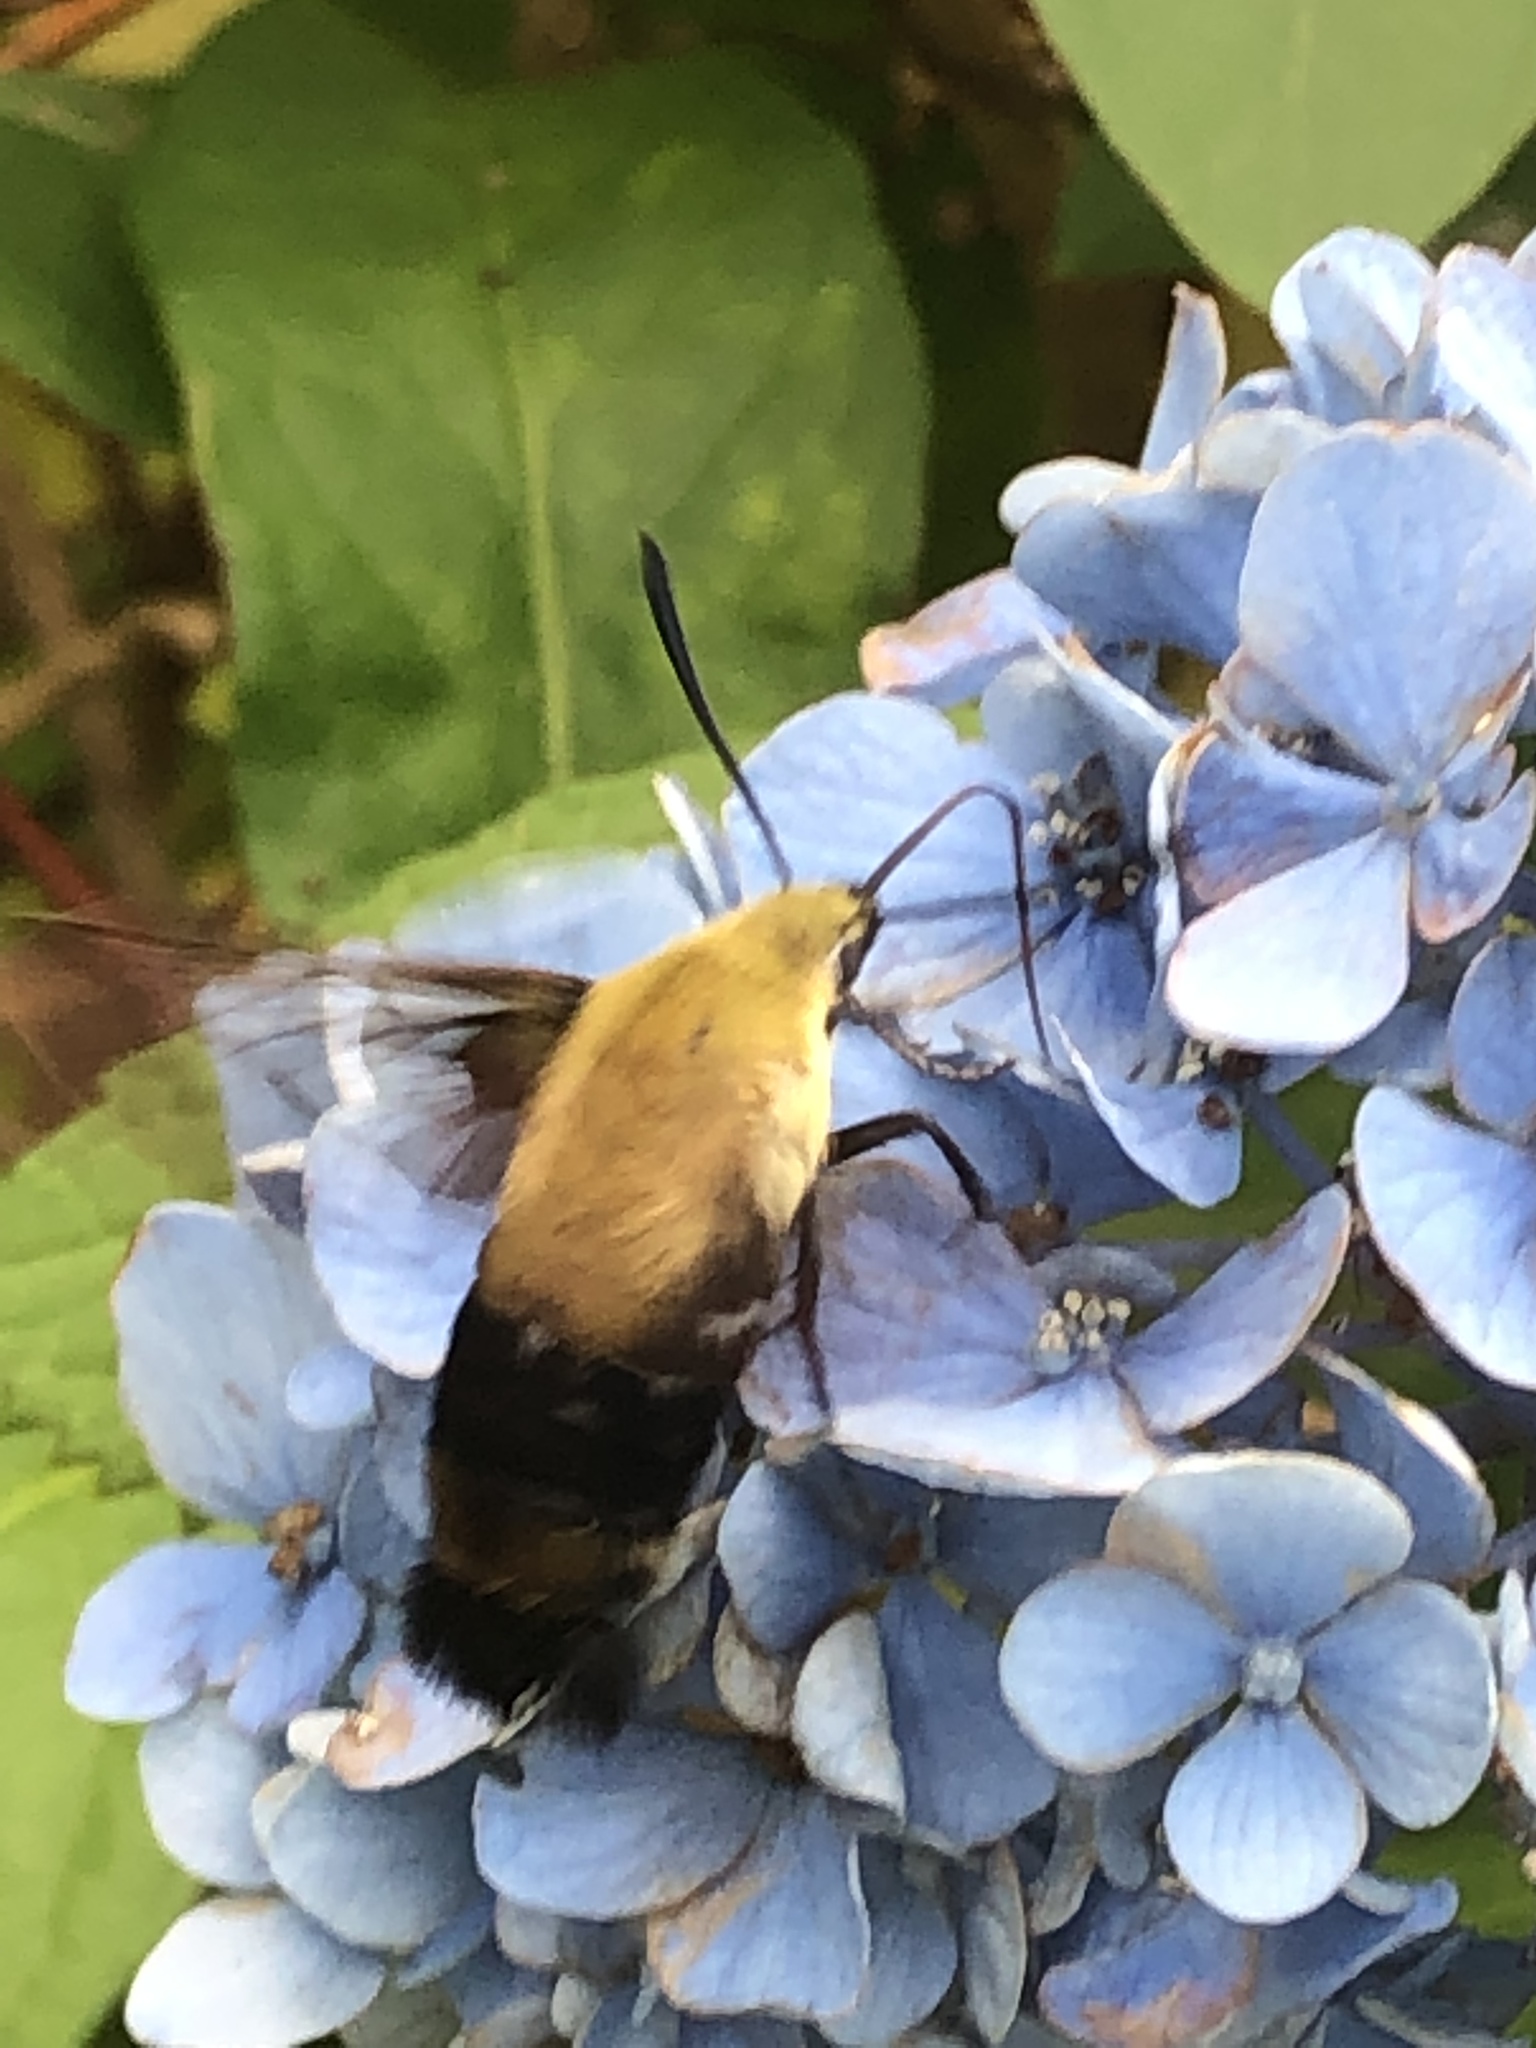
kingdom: Animalia
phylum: Arthropoda
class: Insecta
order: Lepidoptera
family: Sphingidae
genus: Hemaris
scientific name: Hemaris diffinis
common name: Bumblebee moth
